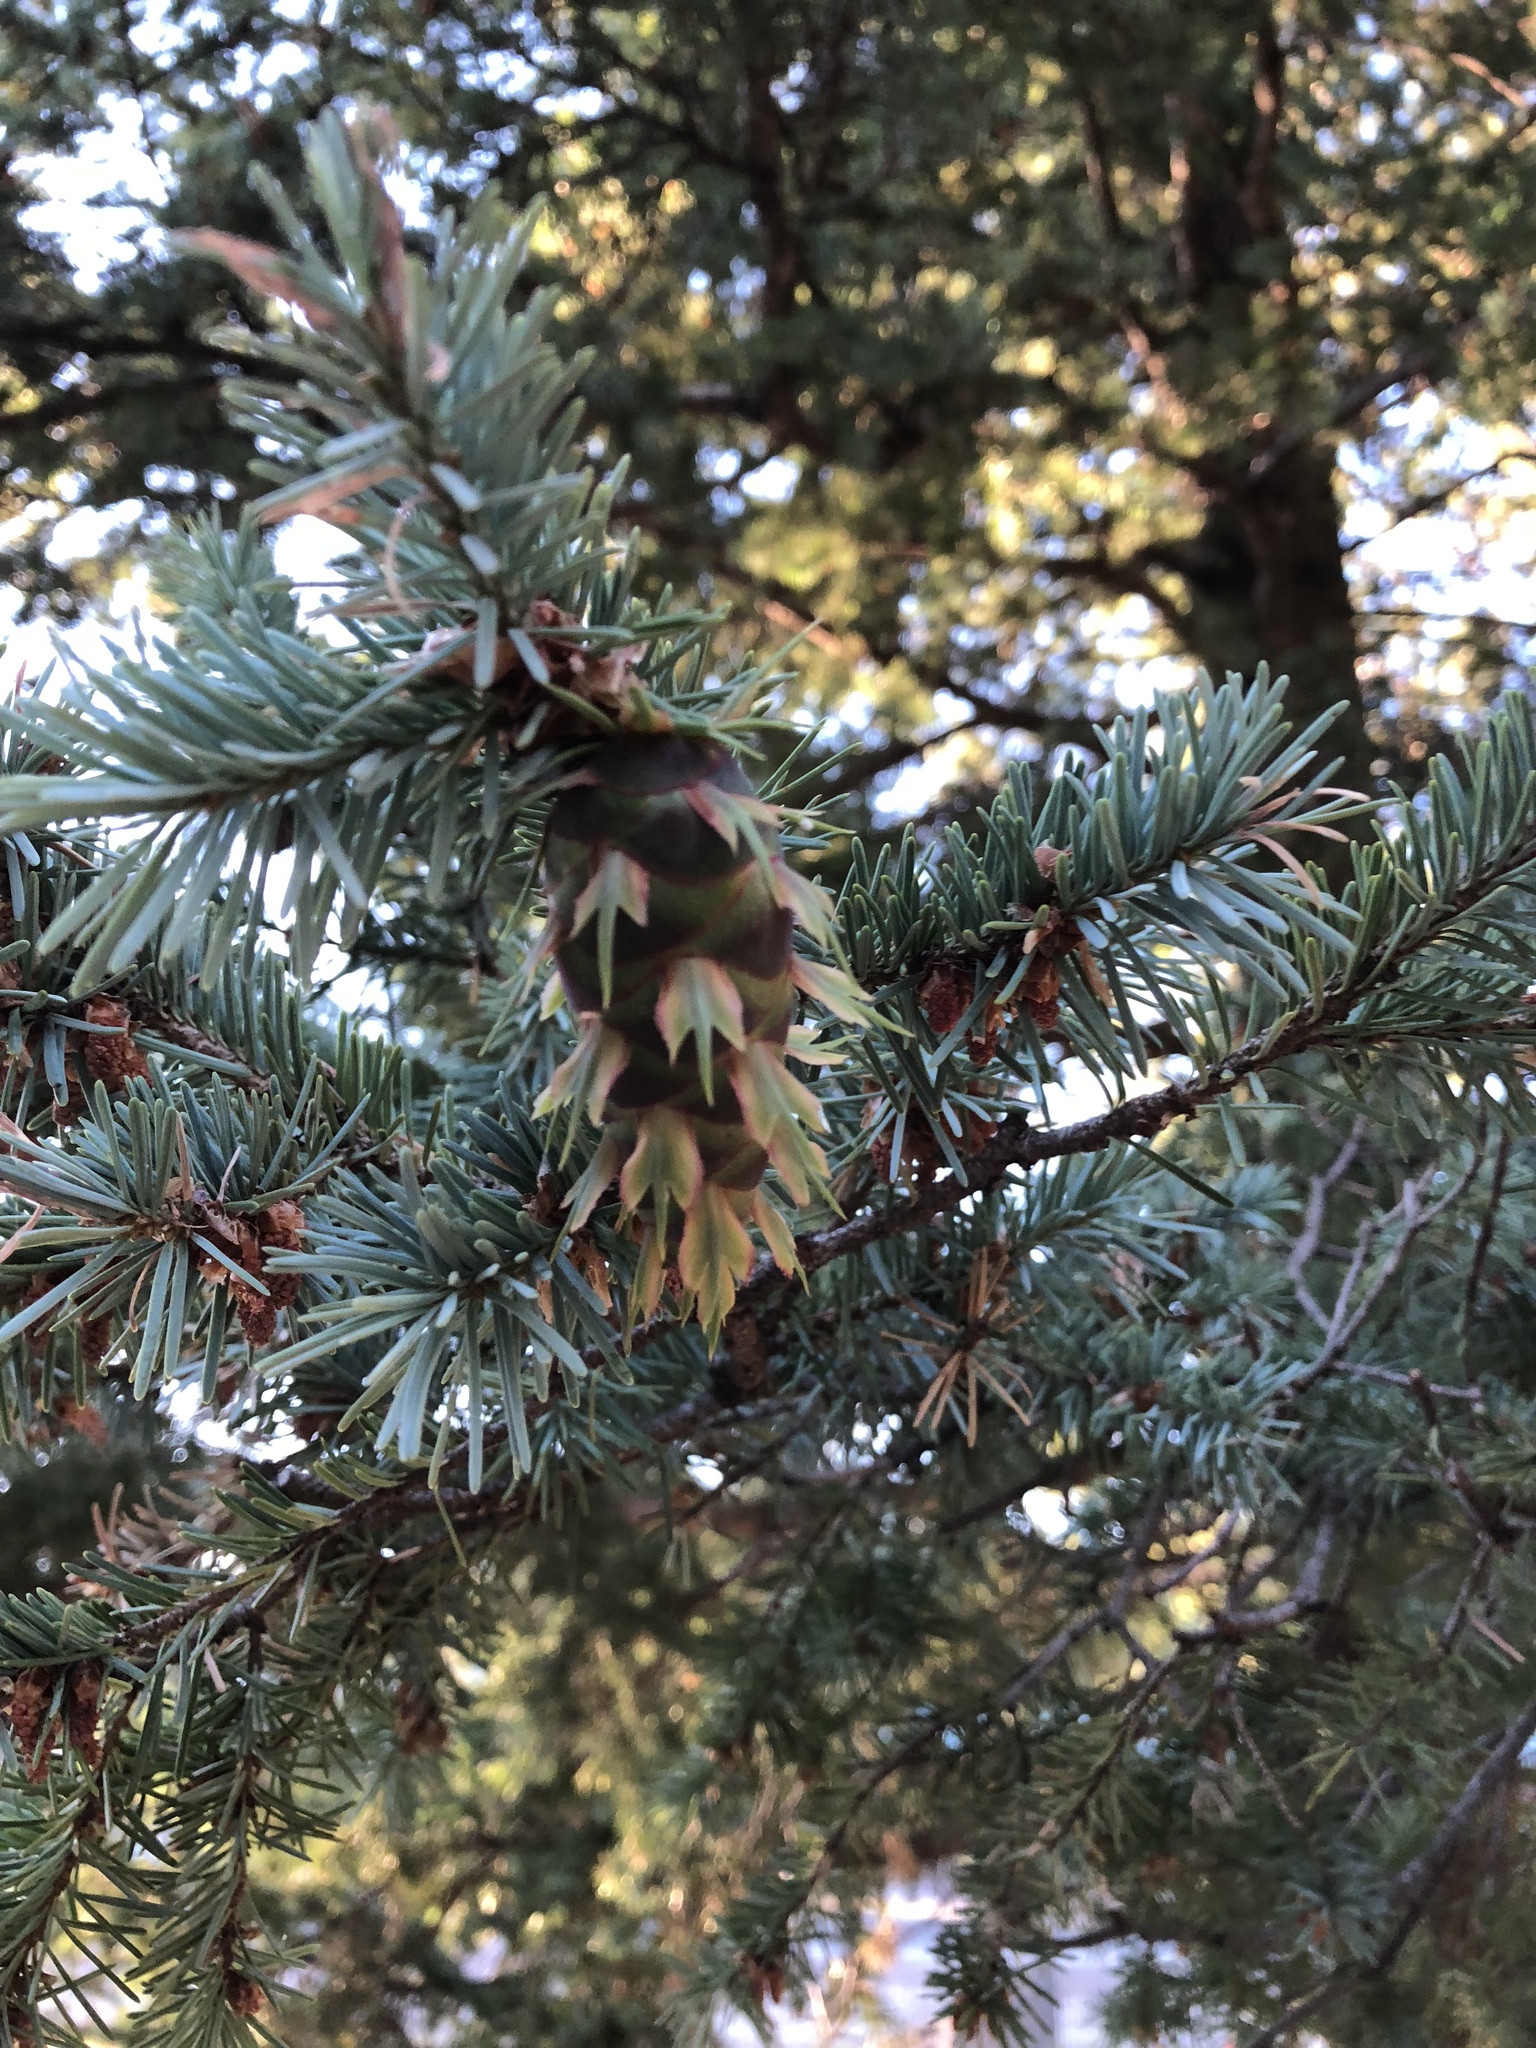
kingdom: Plantae
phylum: Tracheophyta
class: Pinopsida
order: Pinales
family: Pinaceae
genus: Pseudotsuga
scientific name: Pseudotsuga menziesii
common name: Douglas fir
